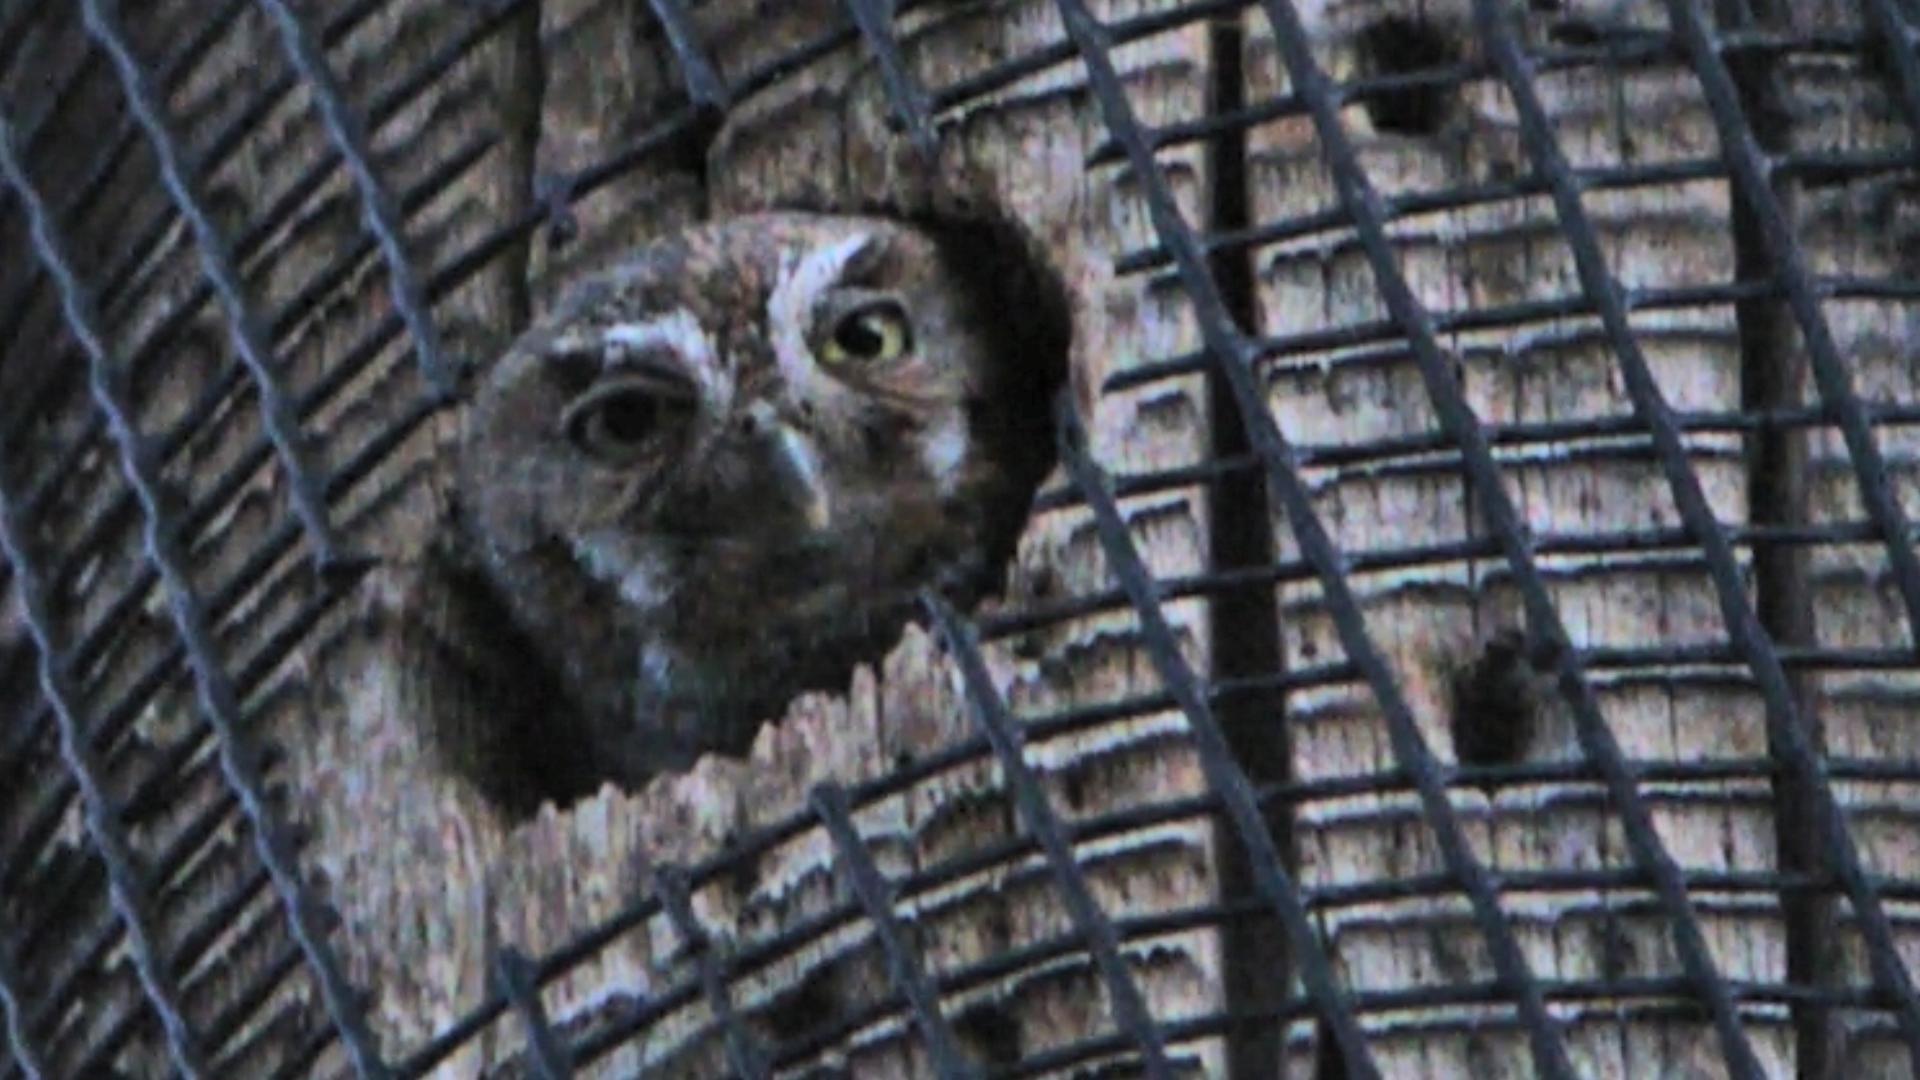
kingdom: Animalia
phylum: Chordata
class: Aves
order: Strigiformes
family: Strigidae
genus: Micrathene
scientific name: Micrathene whitneyi
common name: Elf owl
